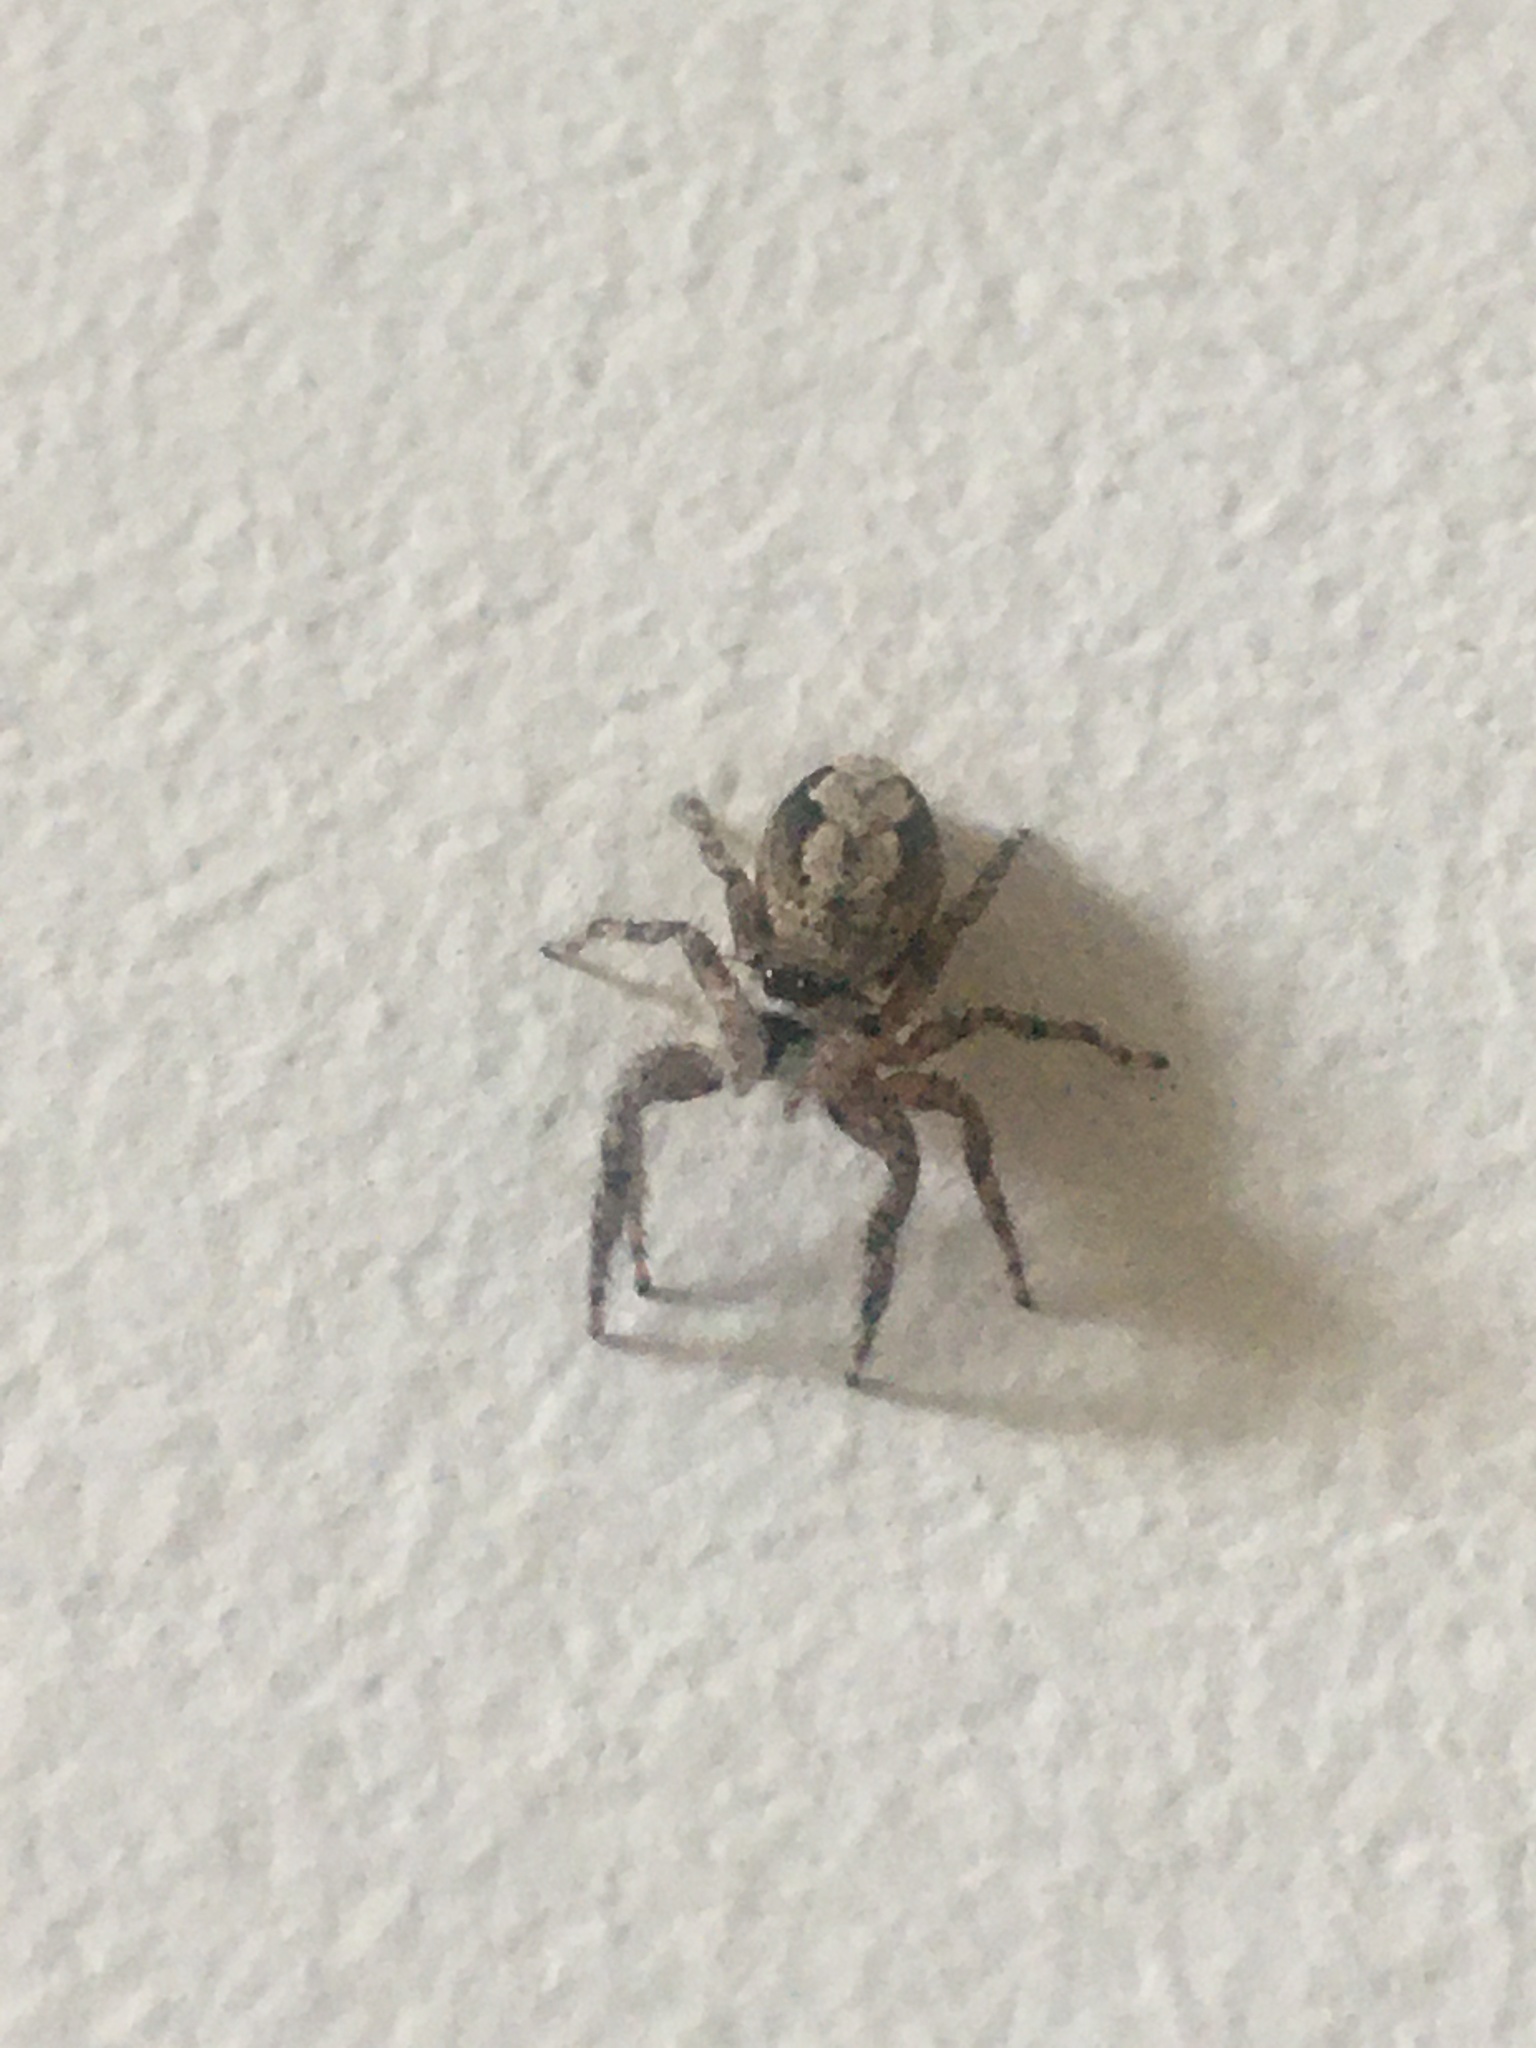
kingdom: Animalia
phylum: Arthropoda
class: Arachnida
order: Araneae
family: Salticidae
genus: Platycryptus
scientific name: Platycryptus undatus
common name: Tan jumping spider
